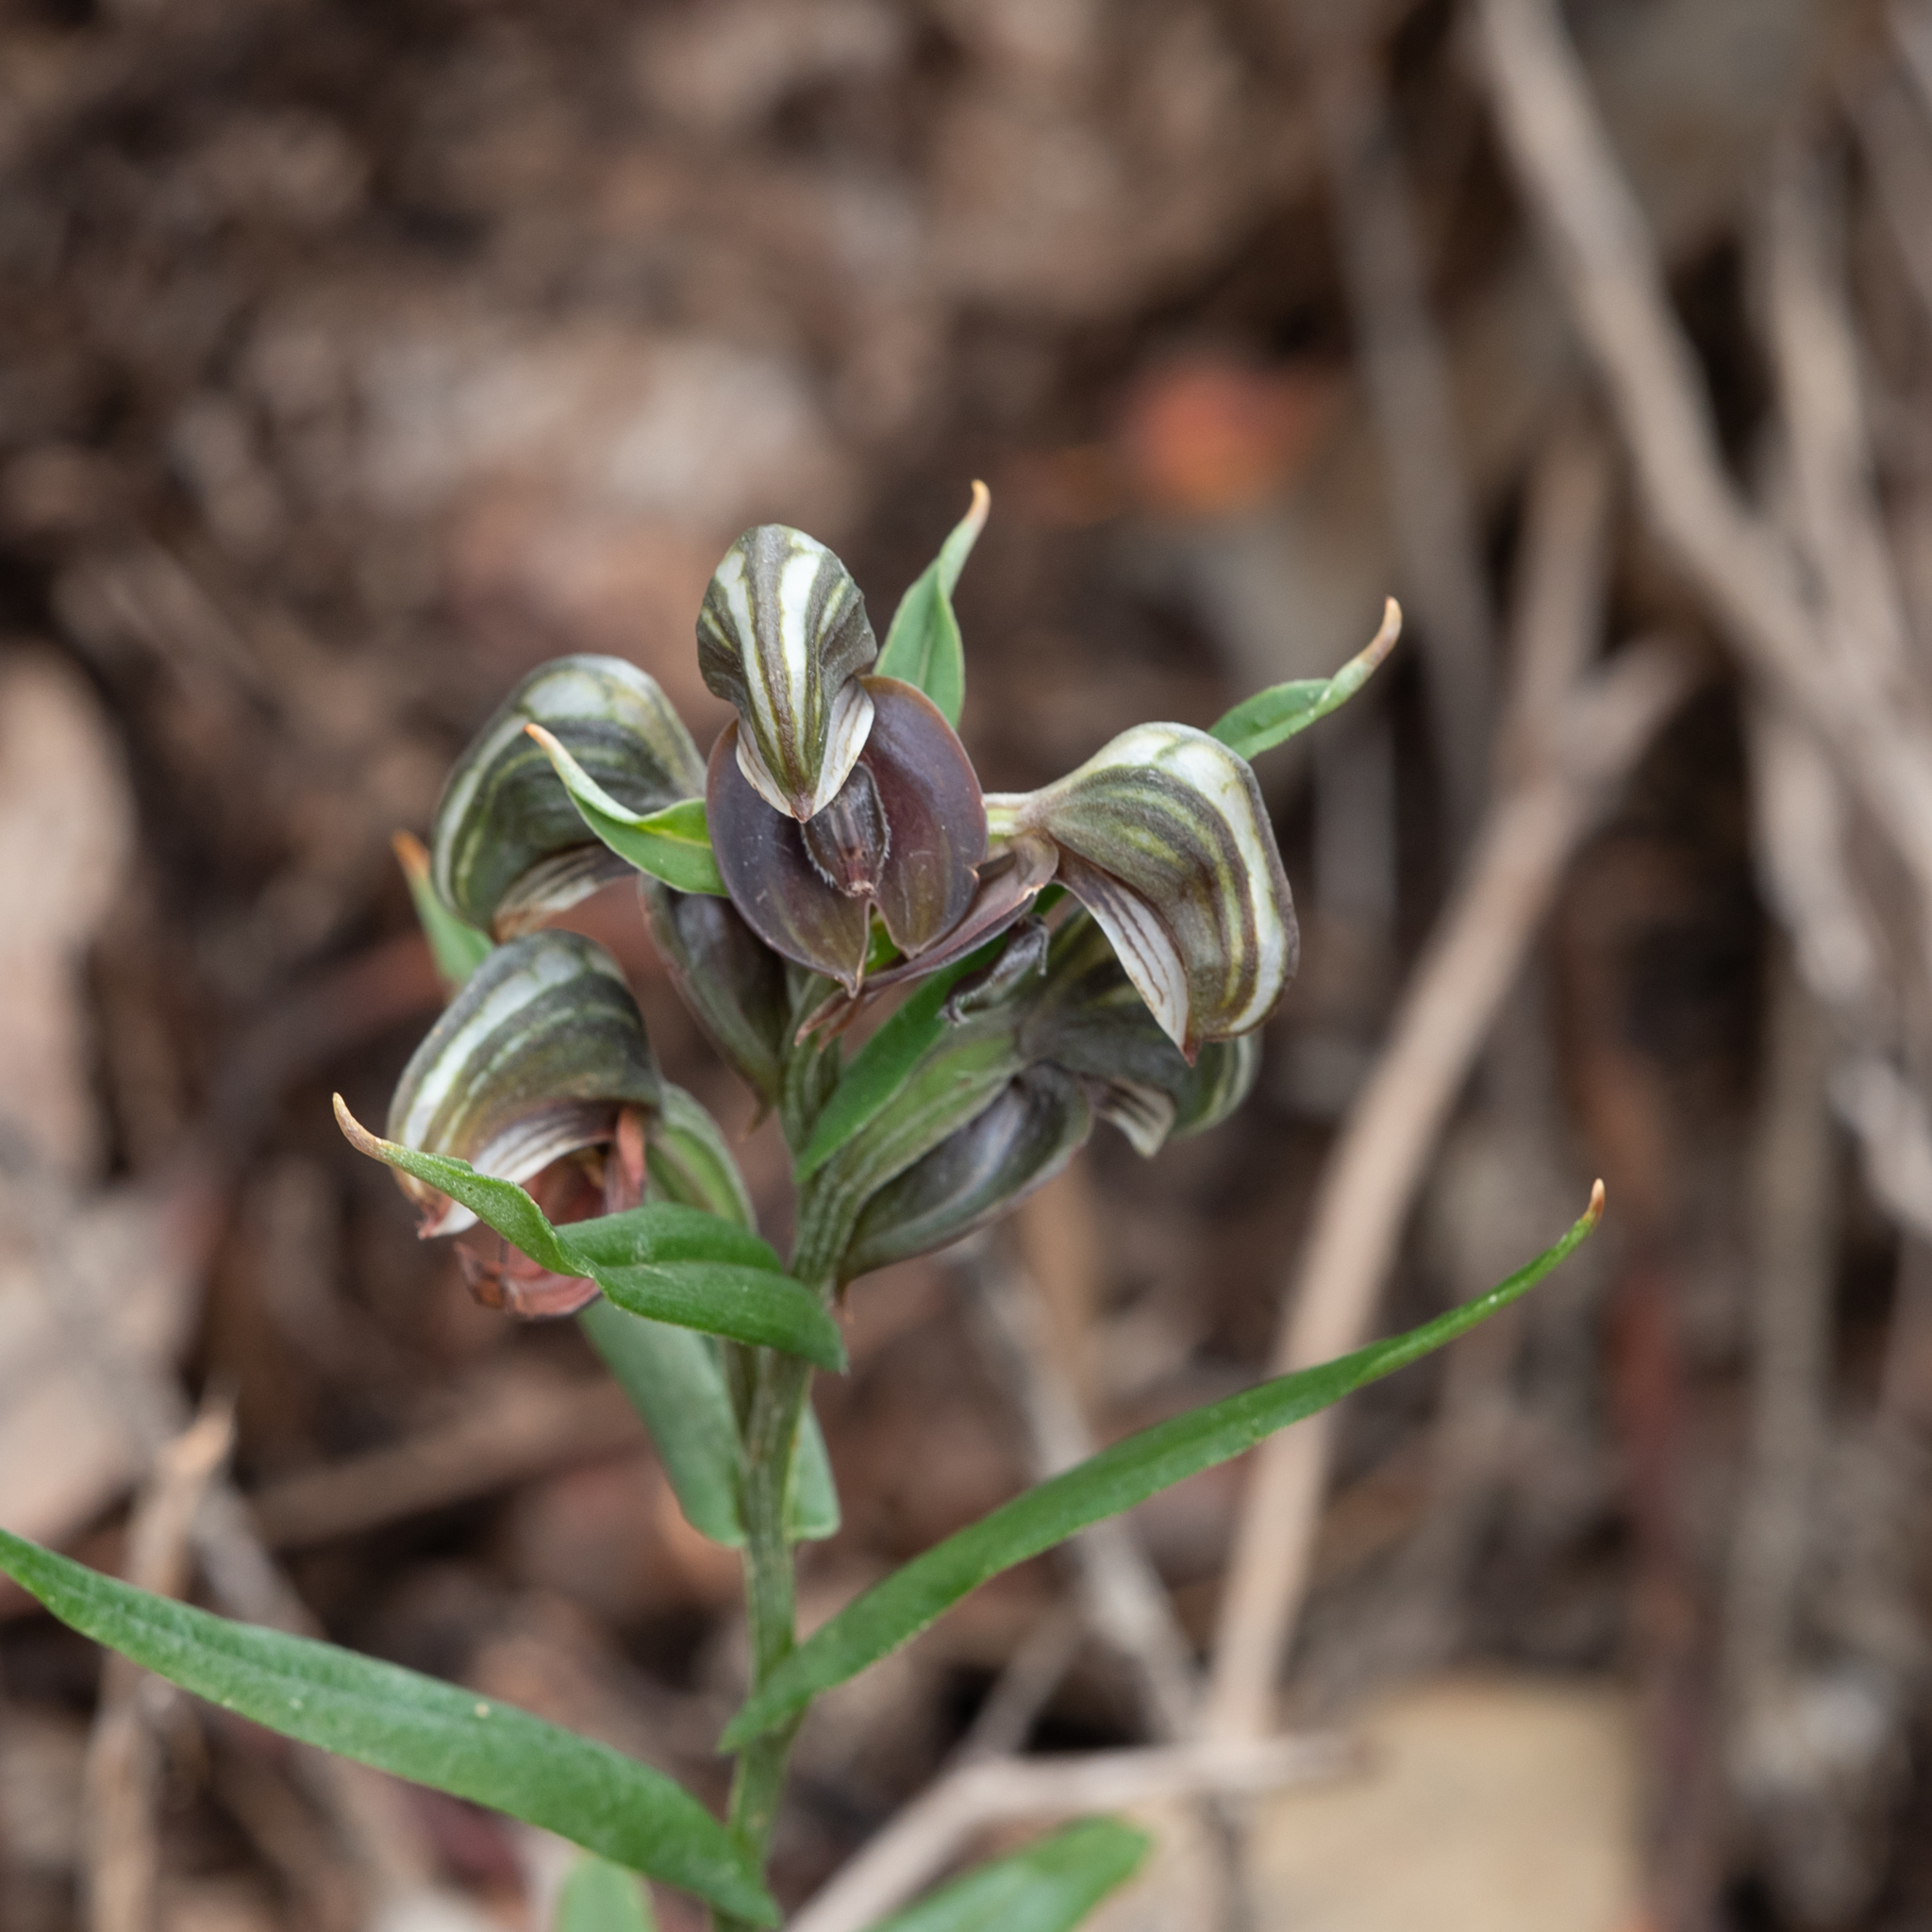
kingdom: Plantae
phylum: Tracheophyta
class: Liliopsida
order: Asparagales
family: Orchidaceae
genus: Pterostylis
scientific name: Pterostylis sanguinea
